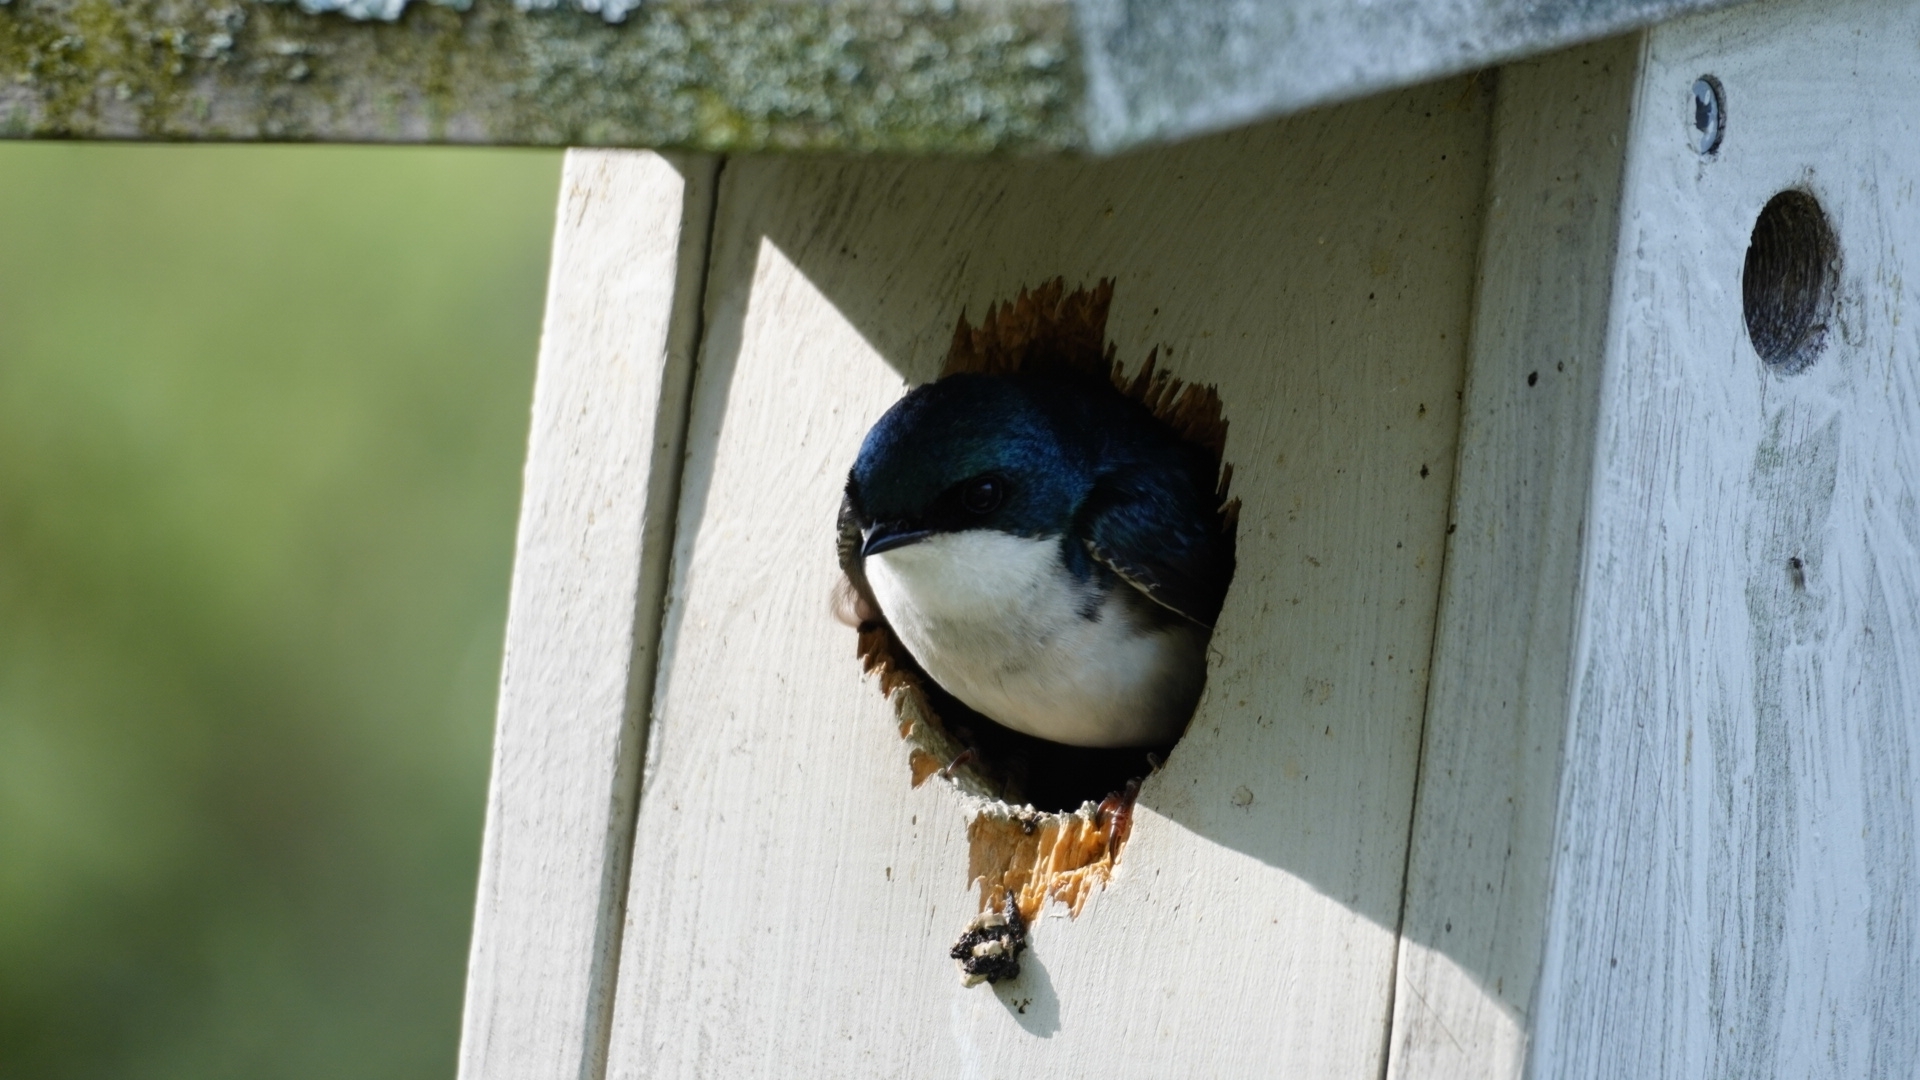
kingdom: Animalia
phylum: Chordata
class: Aves
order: Passeriformes
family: Hirundinidae
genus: Tachycineta
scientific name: Tachycineta bicolor
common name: Tree swallow
